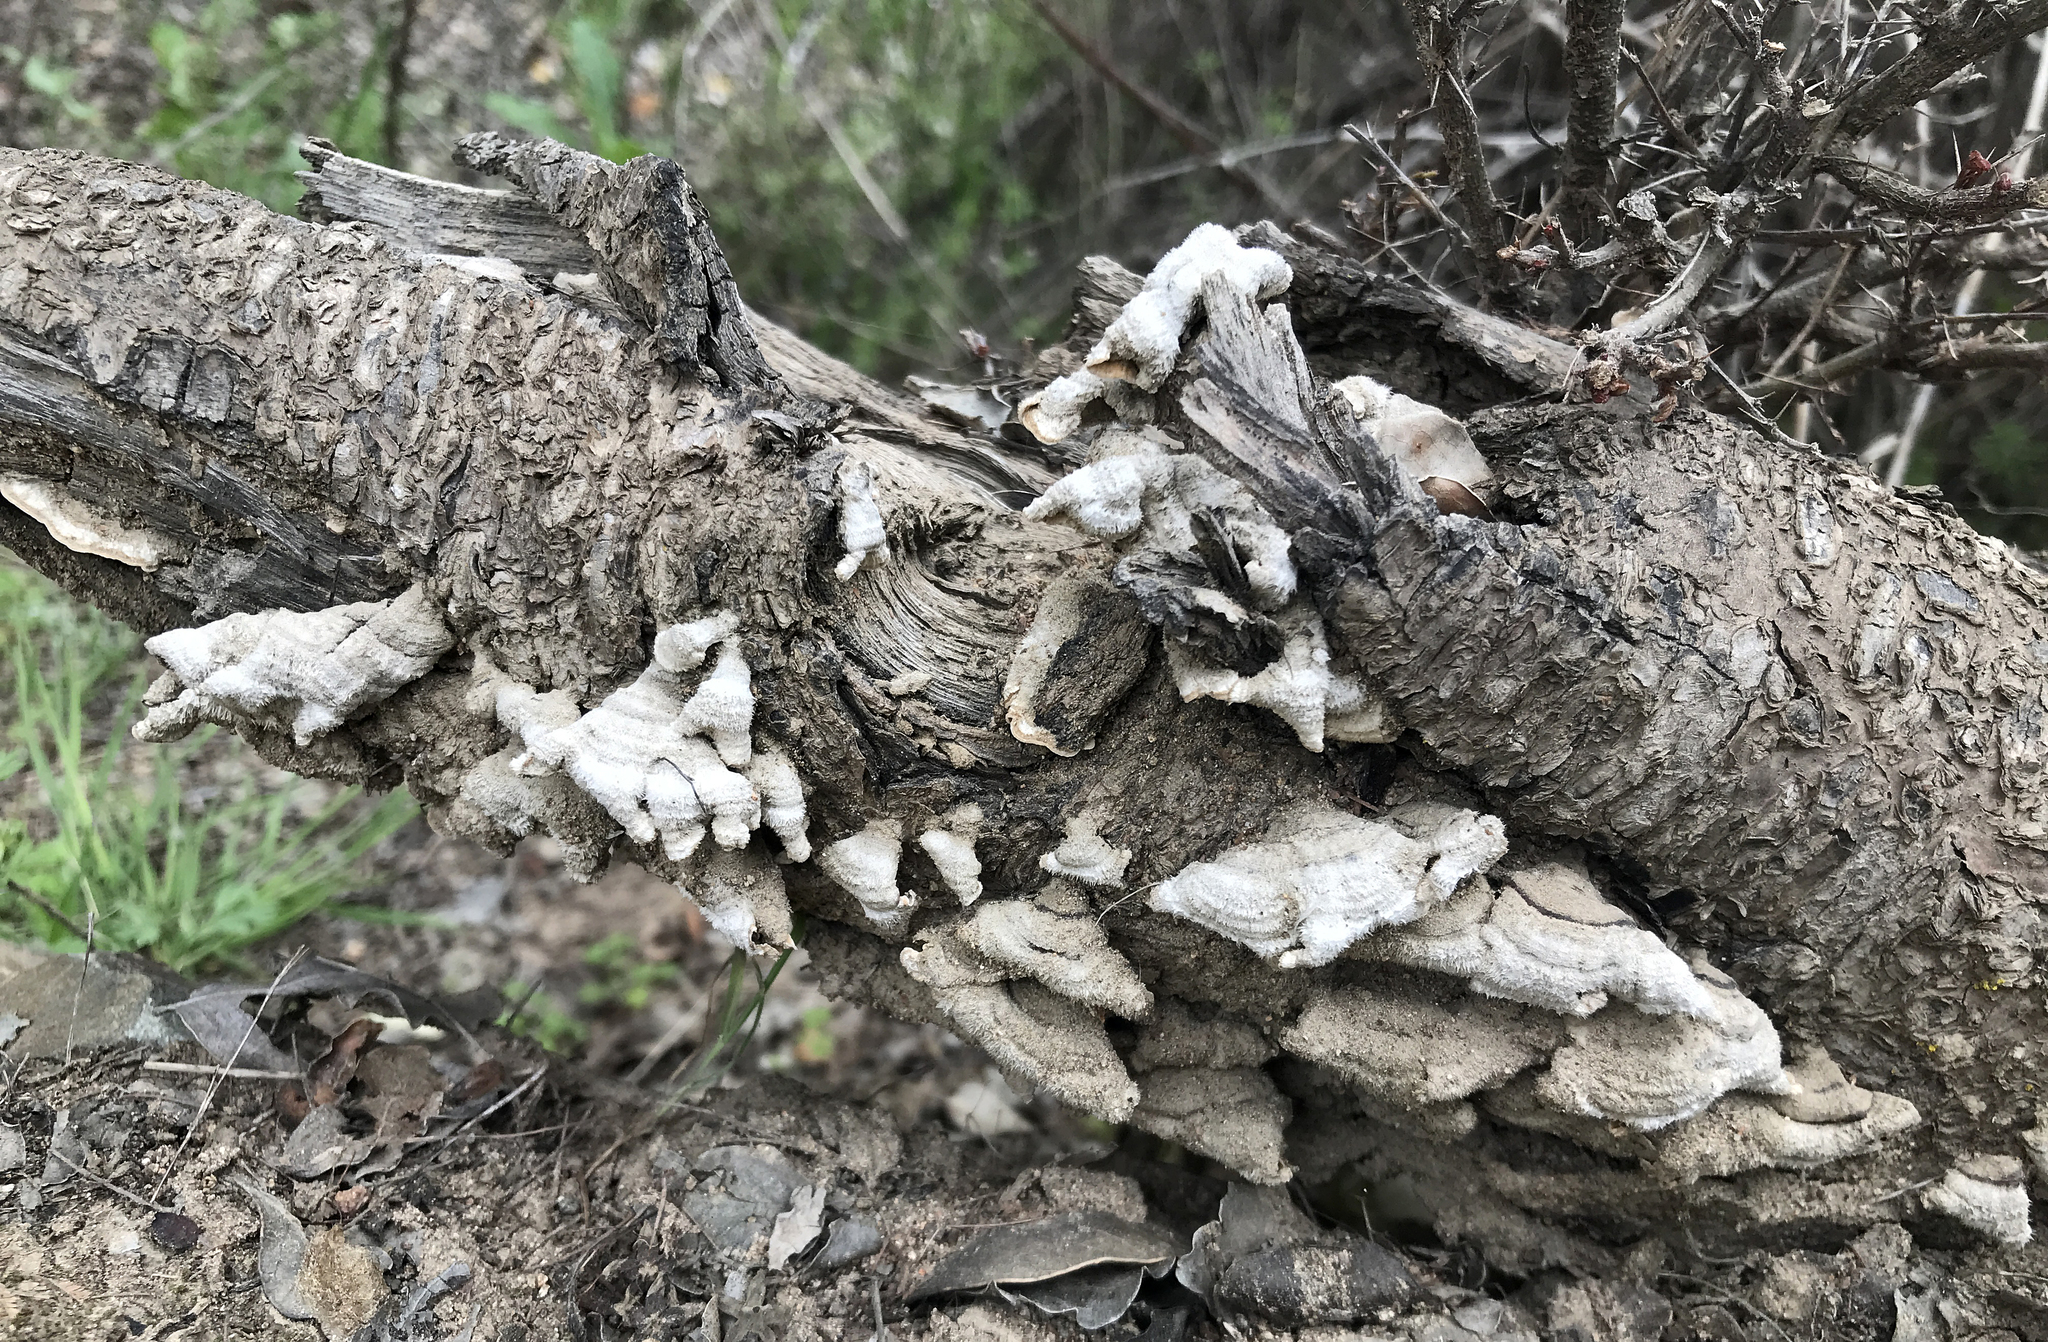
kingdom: Fungi
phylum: Basidiomycota
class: Agaricomycetes
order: Russulales
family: Stereaceae
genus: Stereum
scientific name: Stereum hirsutum
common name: Hairy curtain crust
